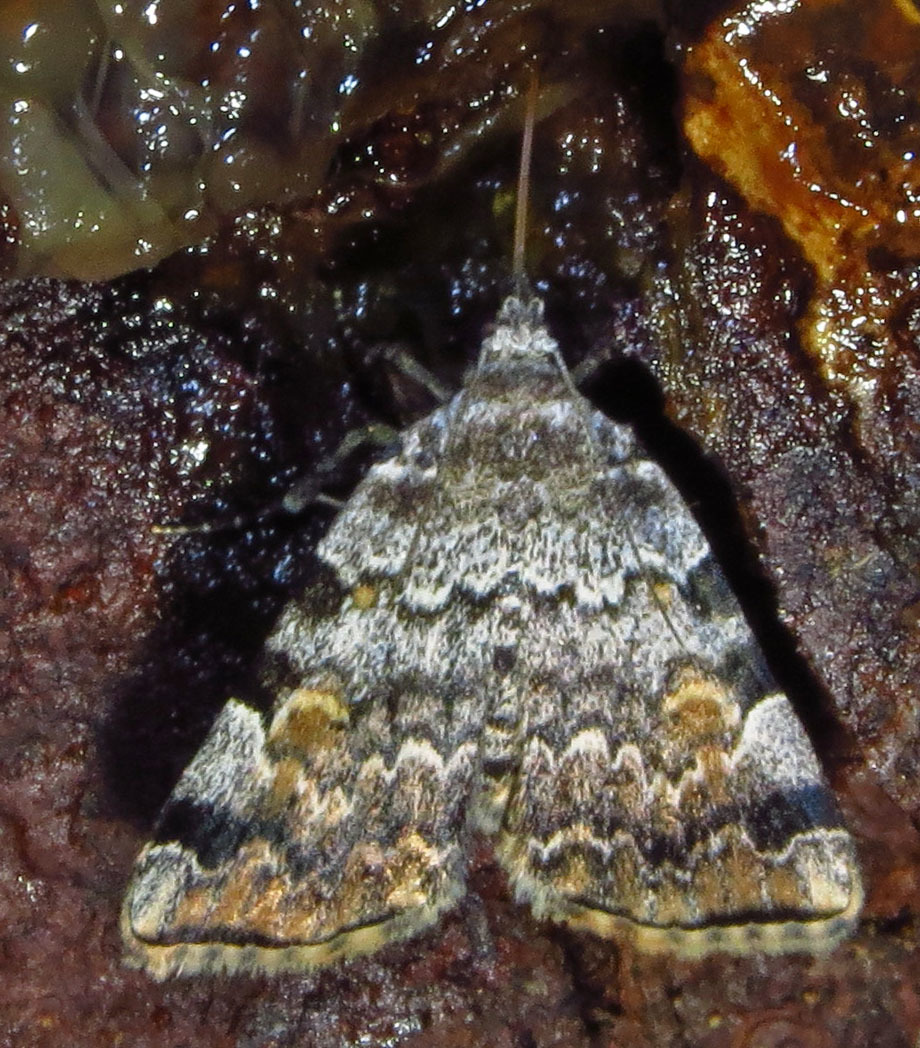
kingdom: Animalia
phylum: Arthropoda
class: Insecta
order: Lepidoptera
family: Erebidae
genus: Idia
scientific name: Idia americalis
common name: American idia moth
